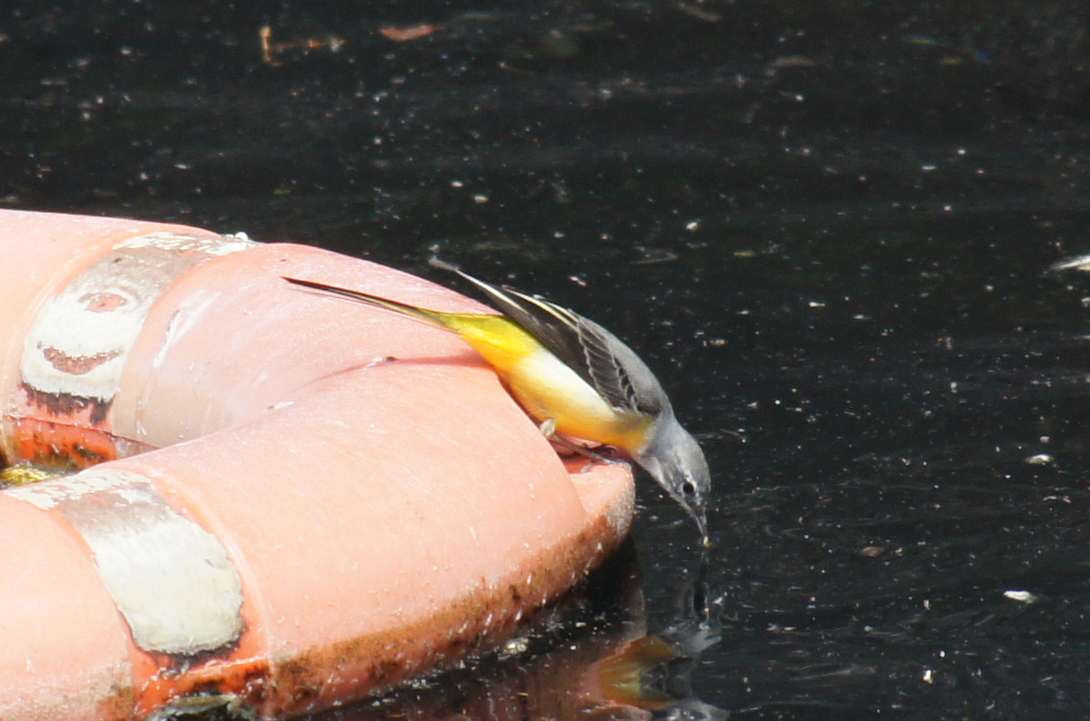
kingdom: Animalia
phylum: Chordata
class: Aves
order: Passeriformes
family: Motacillidae
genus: Motacilla
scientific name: Motacilla cinerea
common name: Grey wagtail
